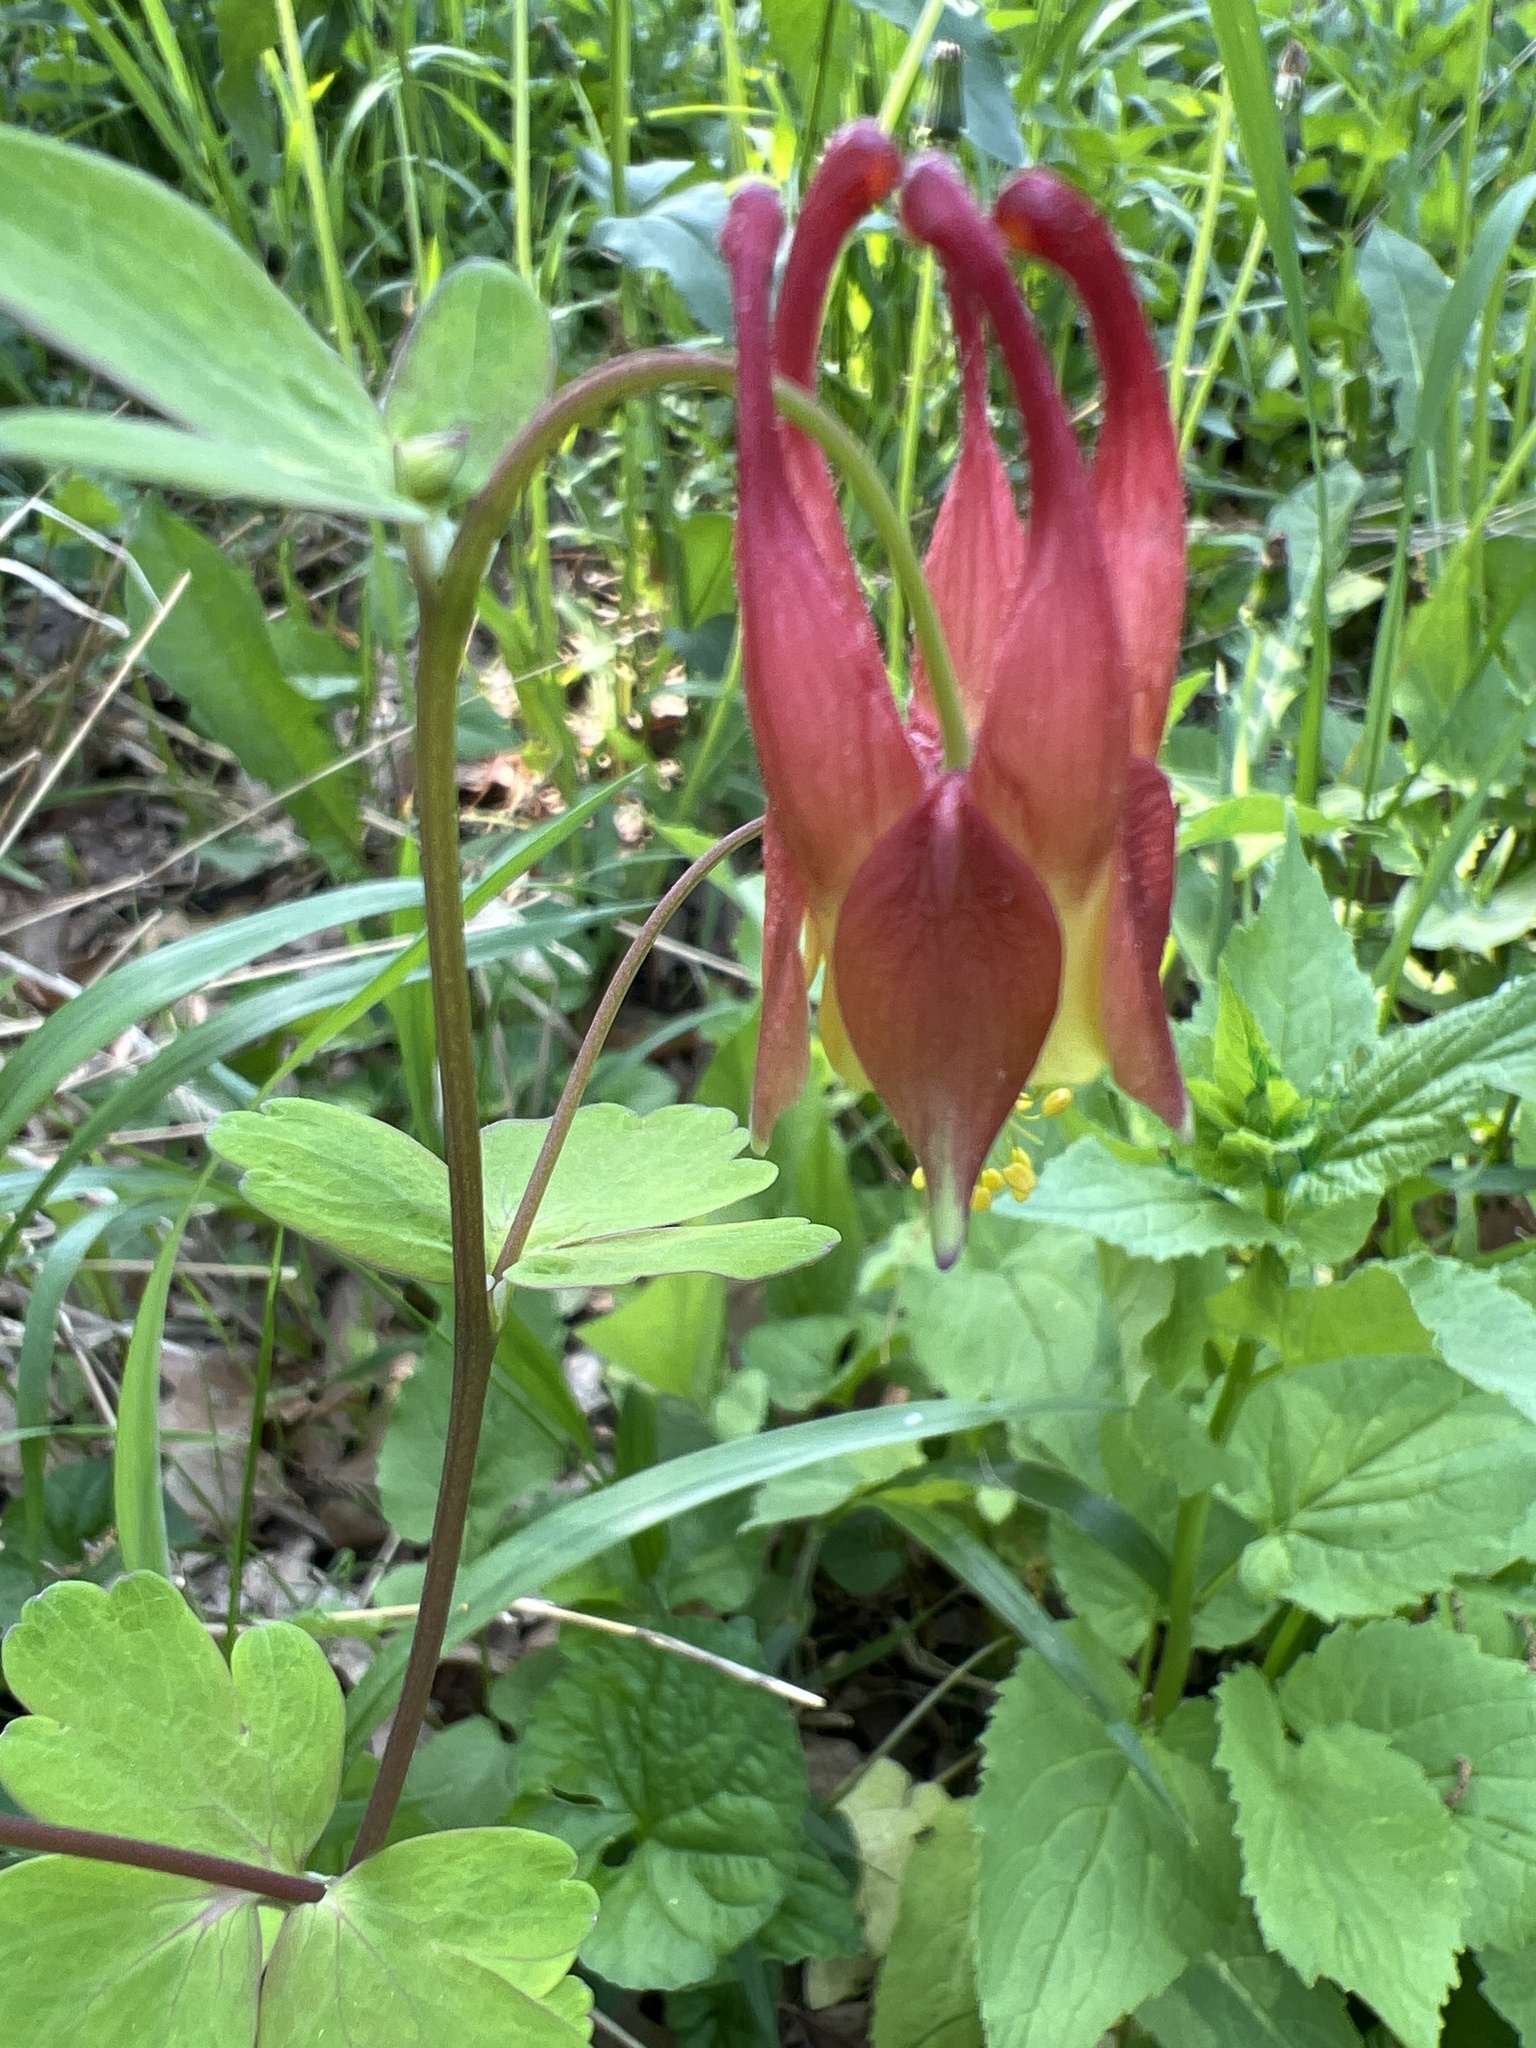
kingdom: Plantae
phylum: Tracheophyta
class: Magnoliopsida
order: Ranunculales
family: Ranunculaceae
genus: Aquilegia
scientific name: Aquilegia canadensis
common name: American columbine
